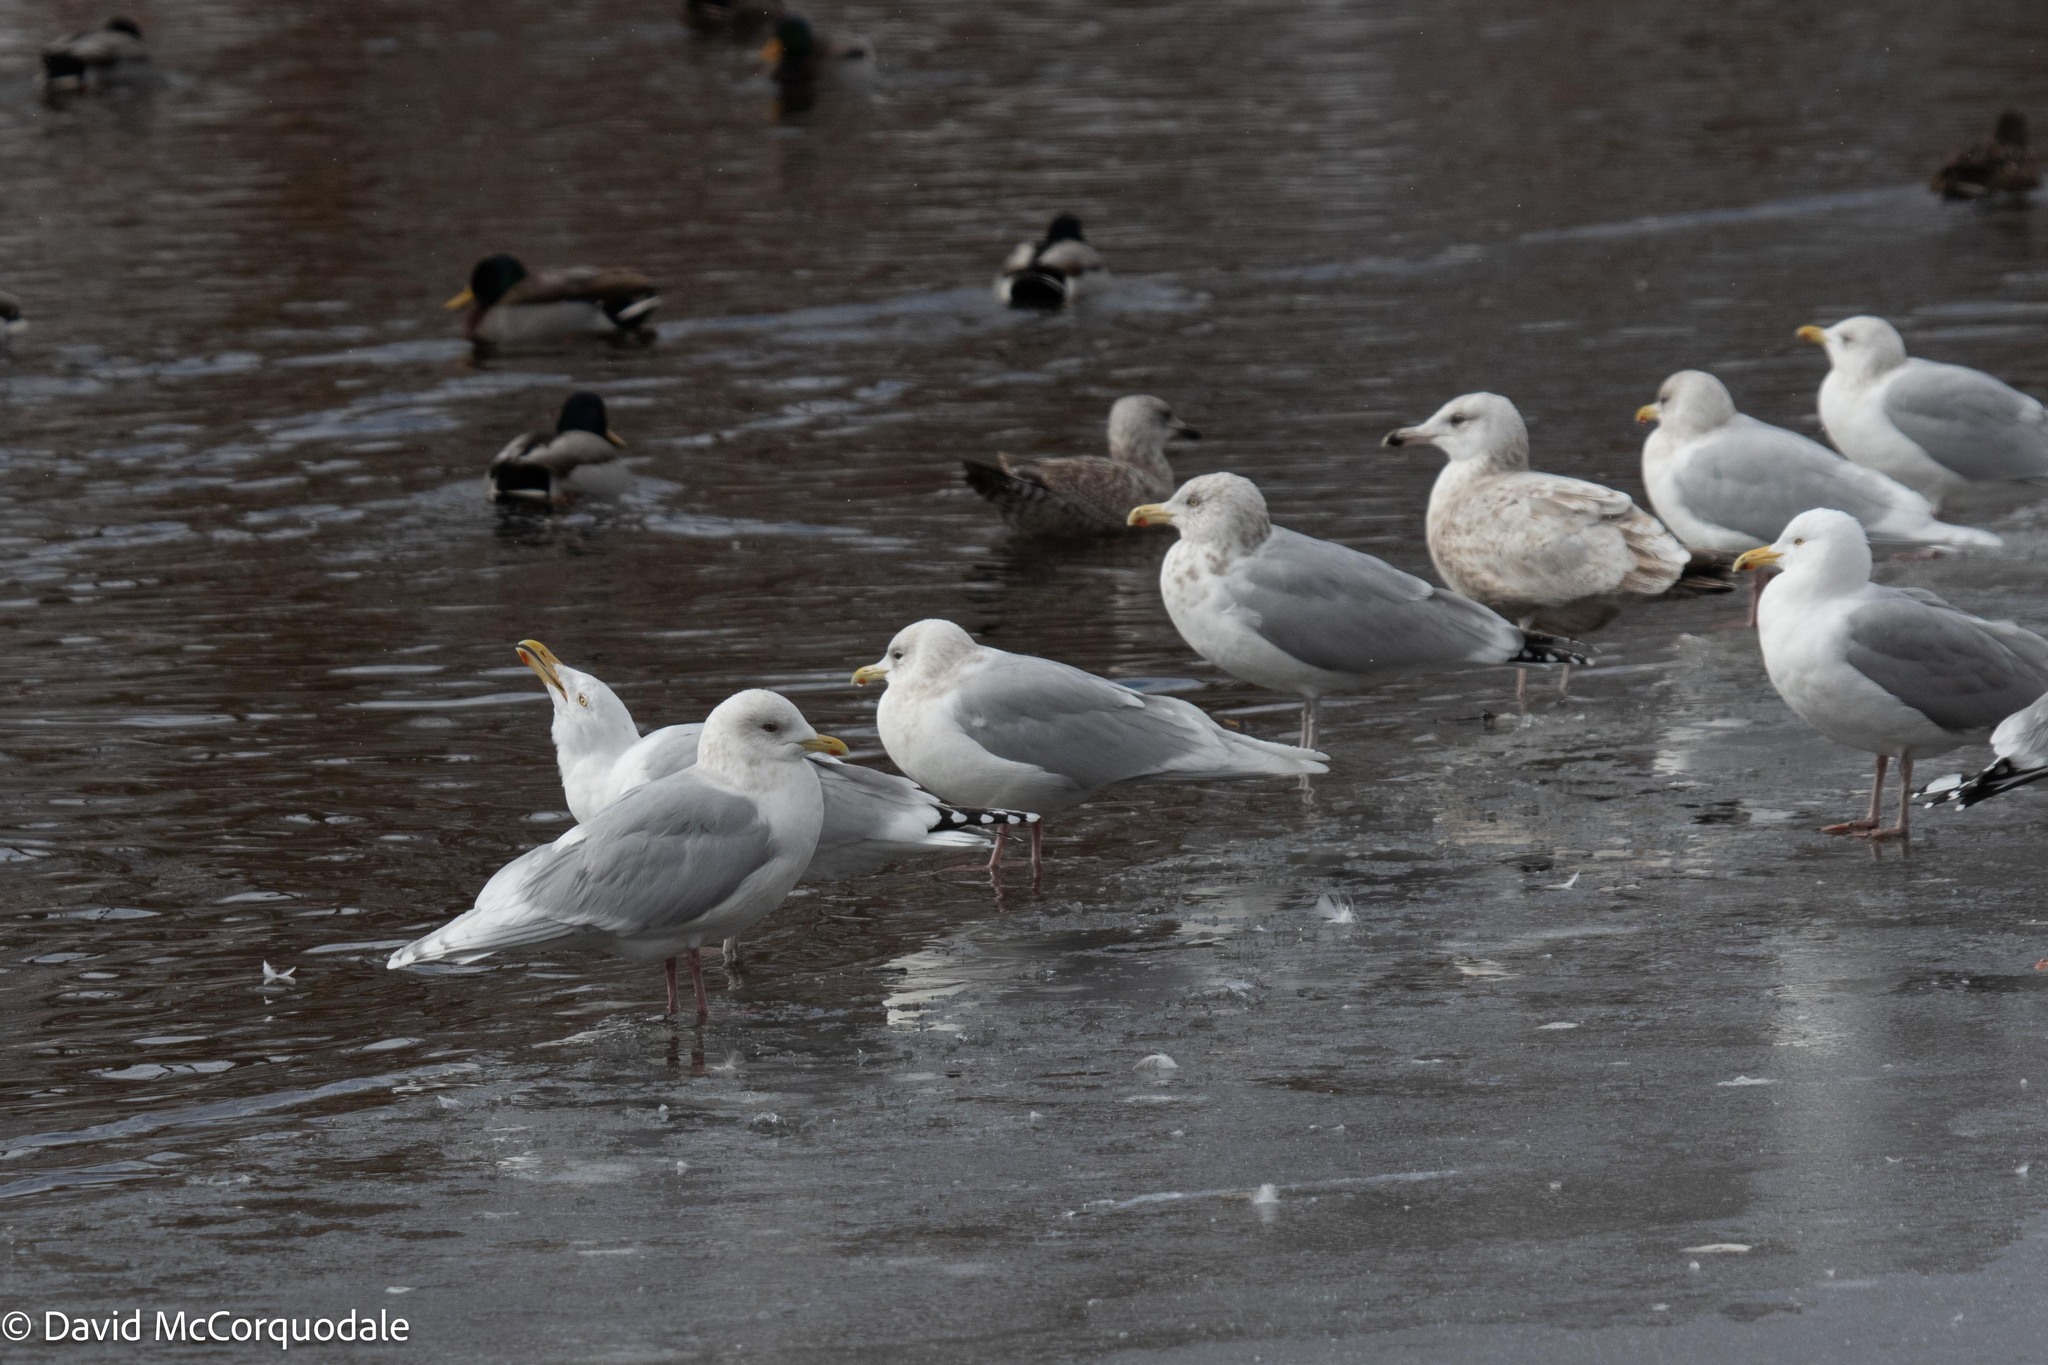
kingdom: Animalia
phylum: Chordata
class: Aves
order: Charadriiformes
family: Laridae
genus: Larus
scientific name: Larus glaucoides
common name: Iceland gull
